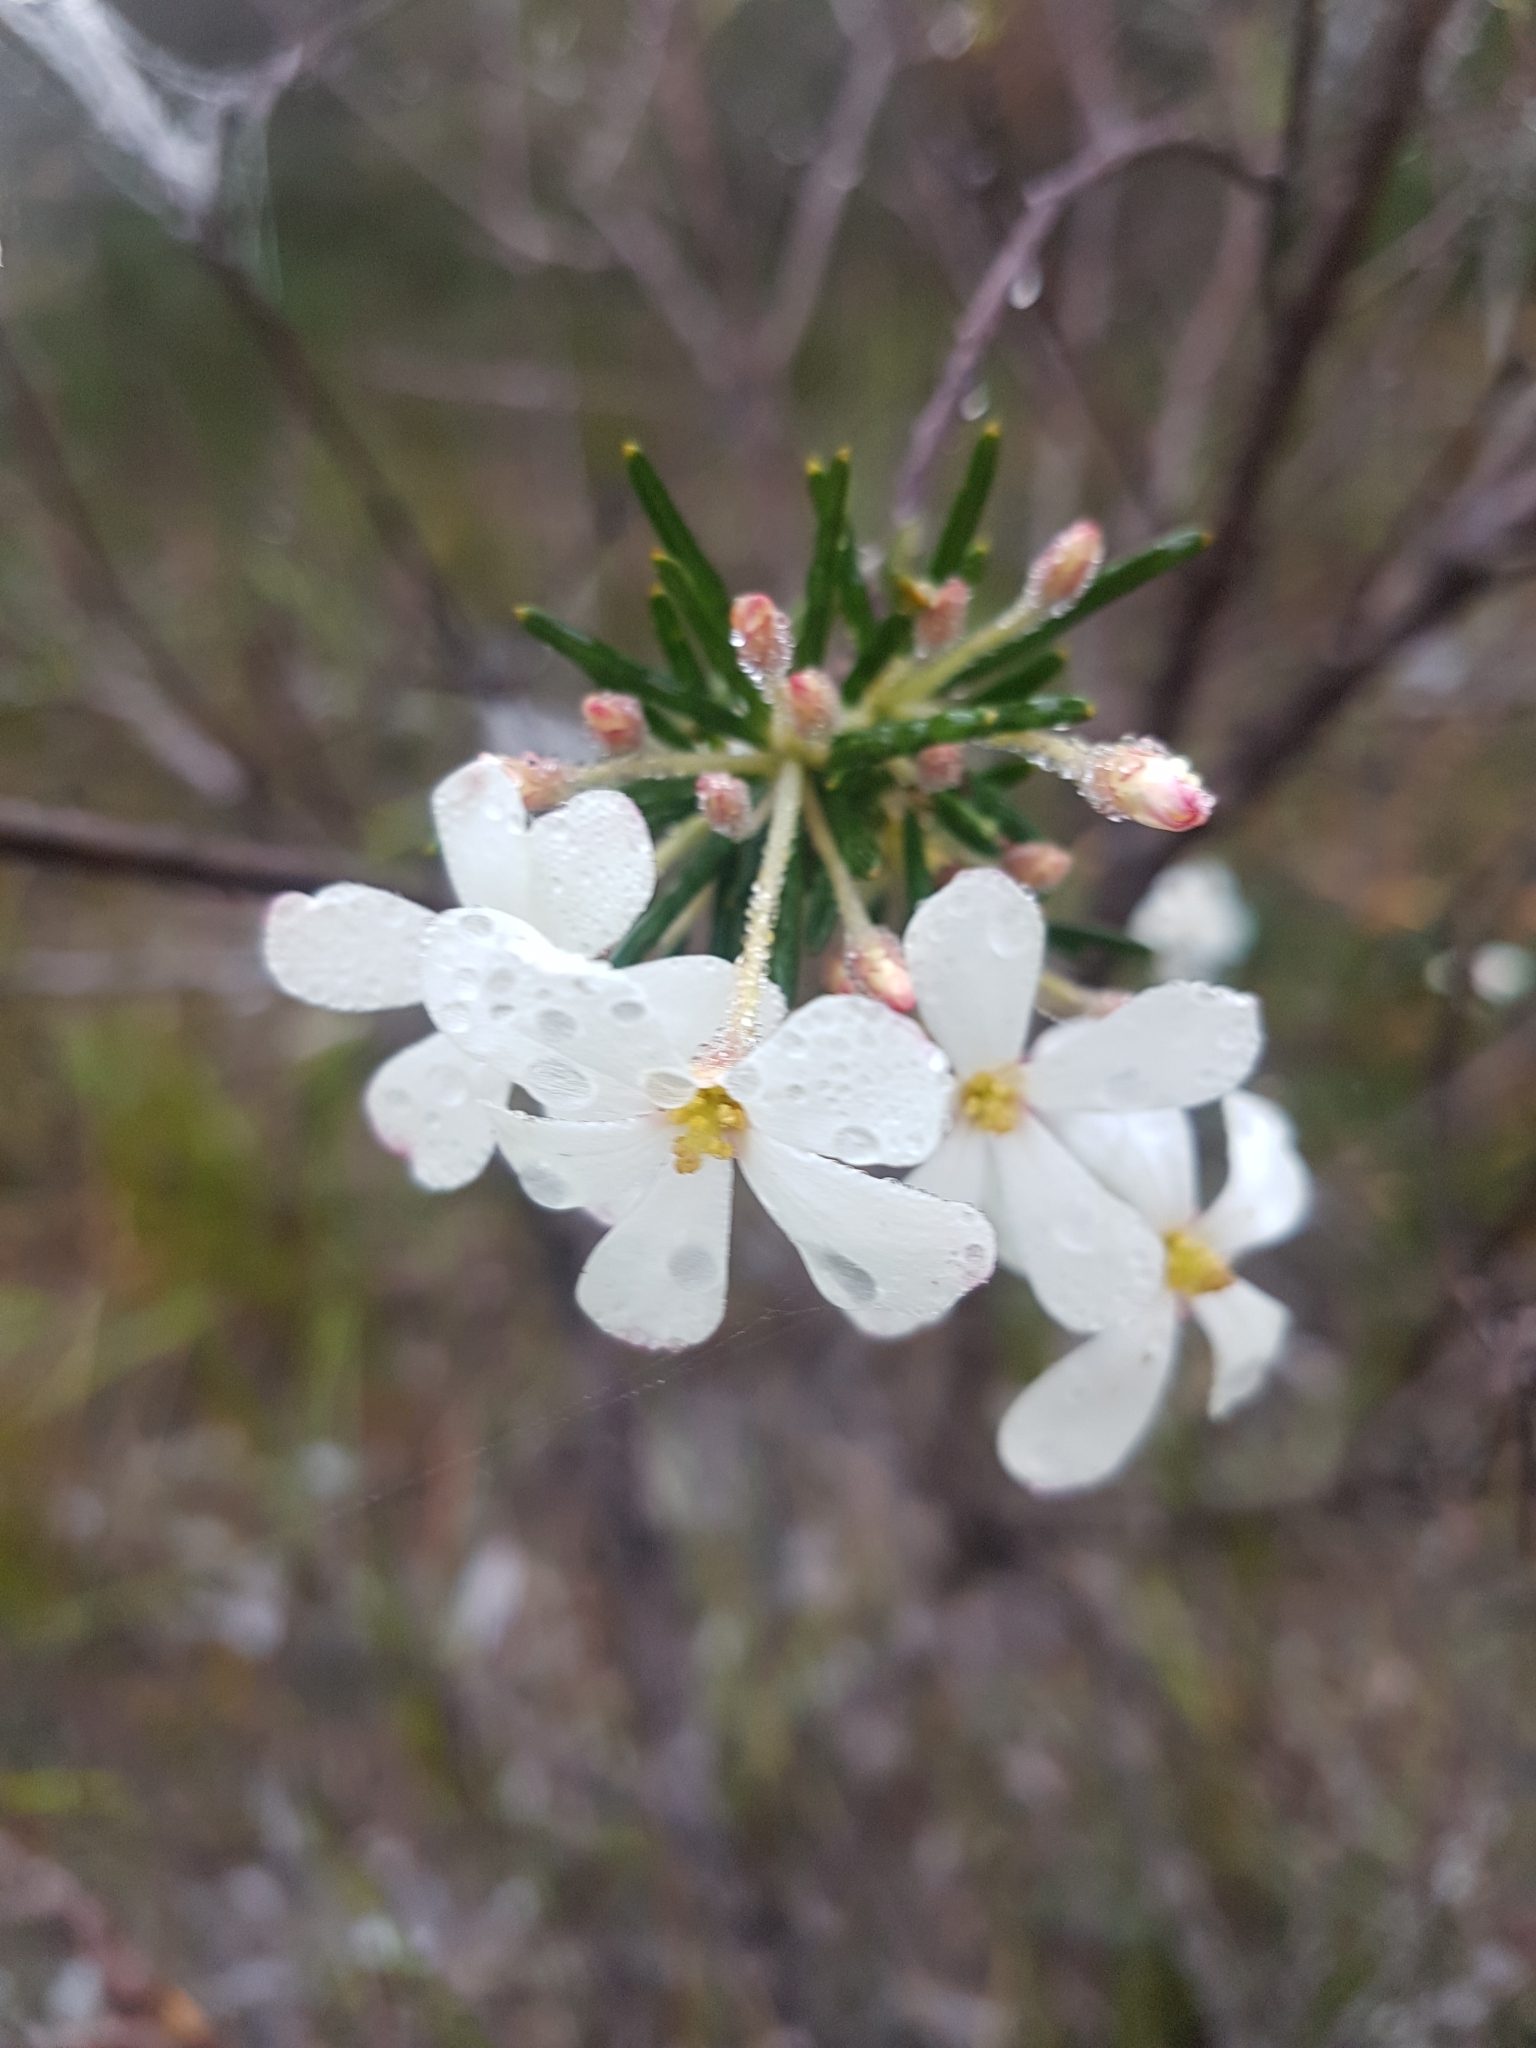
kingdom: Plantae
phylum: Tracheophyta
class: Magnoliopsida
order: Malpighiales
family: Euphorbiaceae
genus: Ricinocarpos
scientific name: Ricinocarpos pinifolius
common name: Weddingbush
